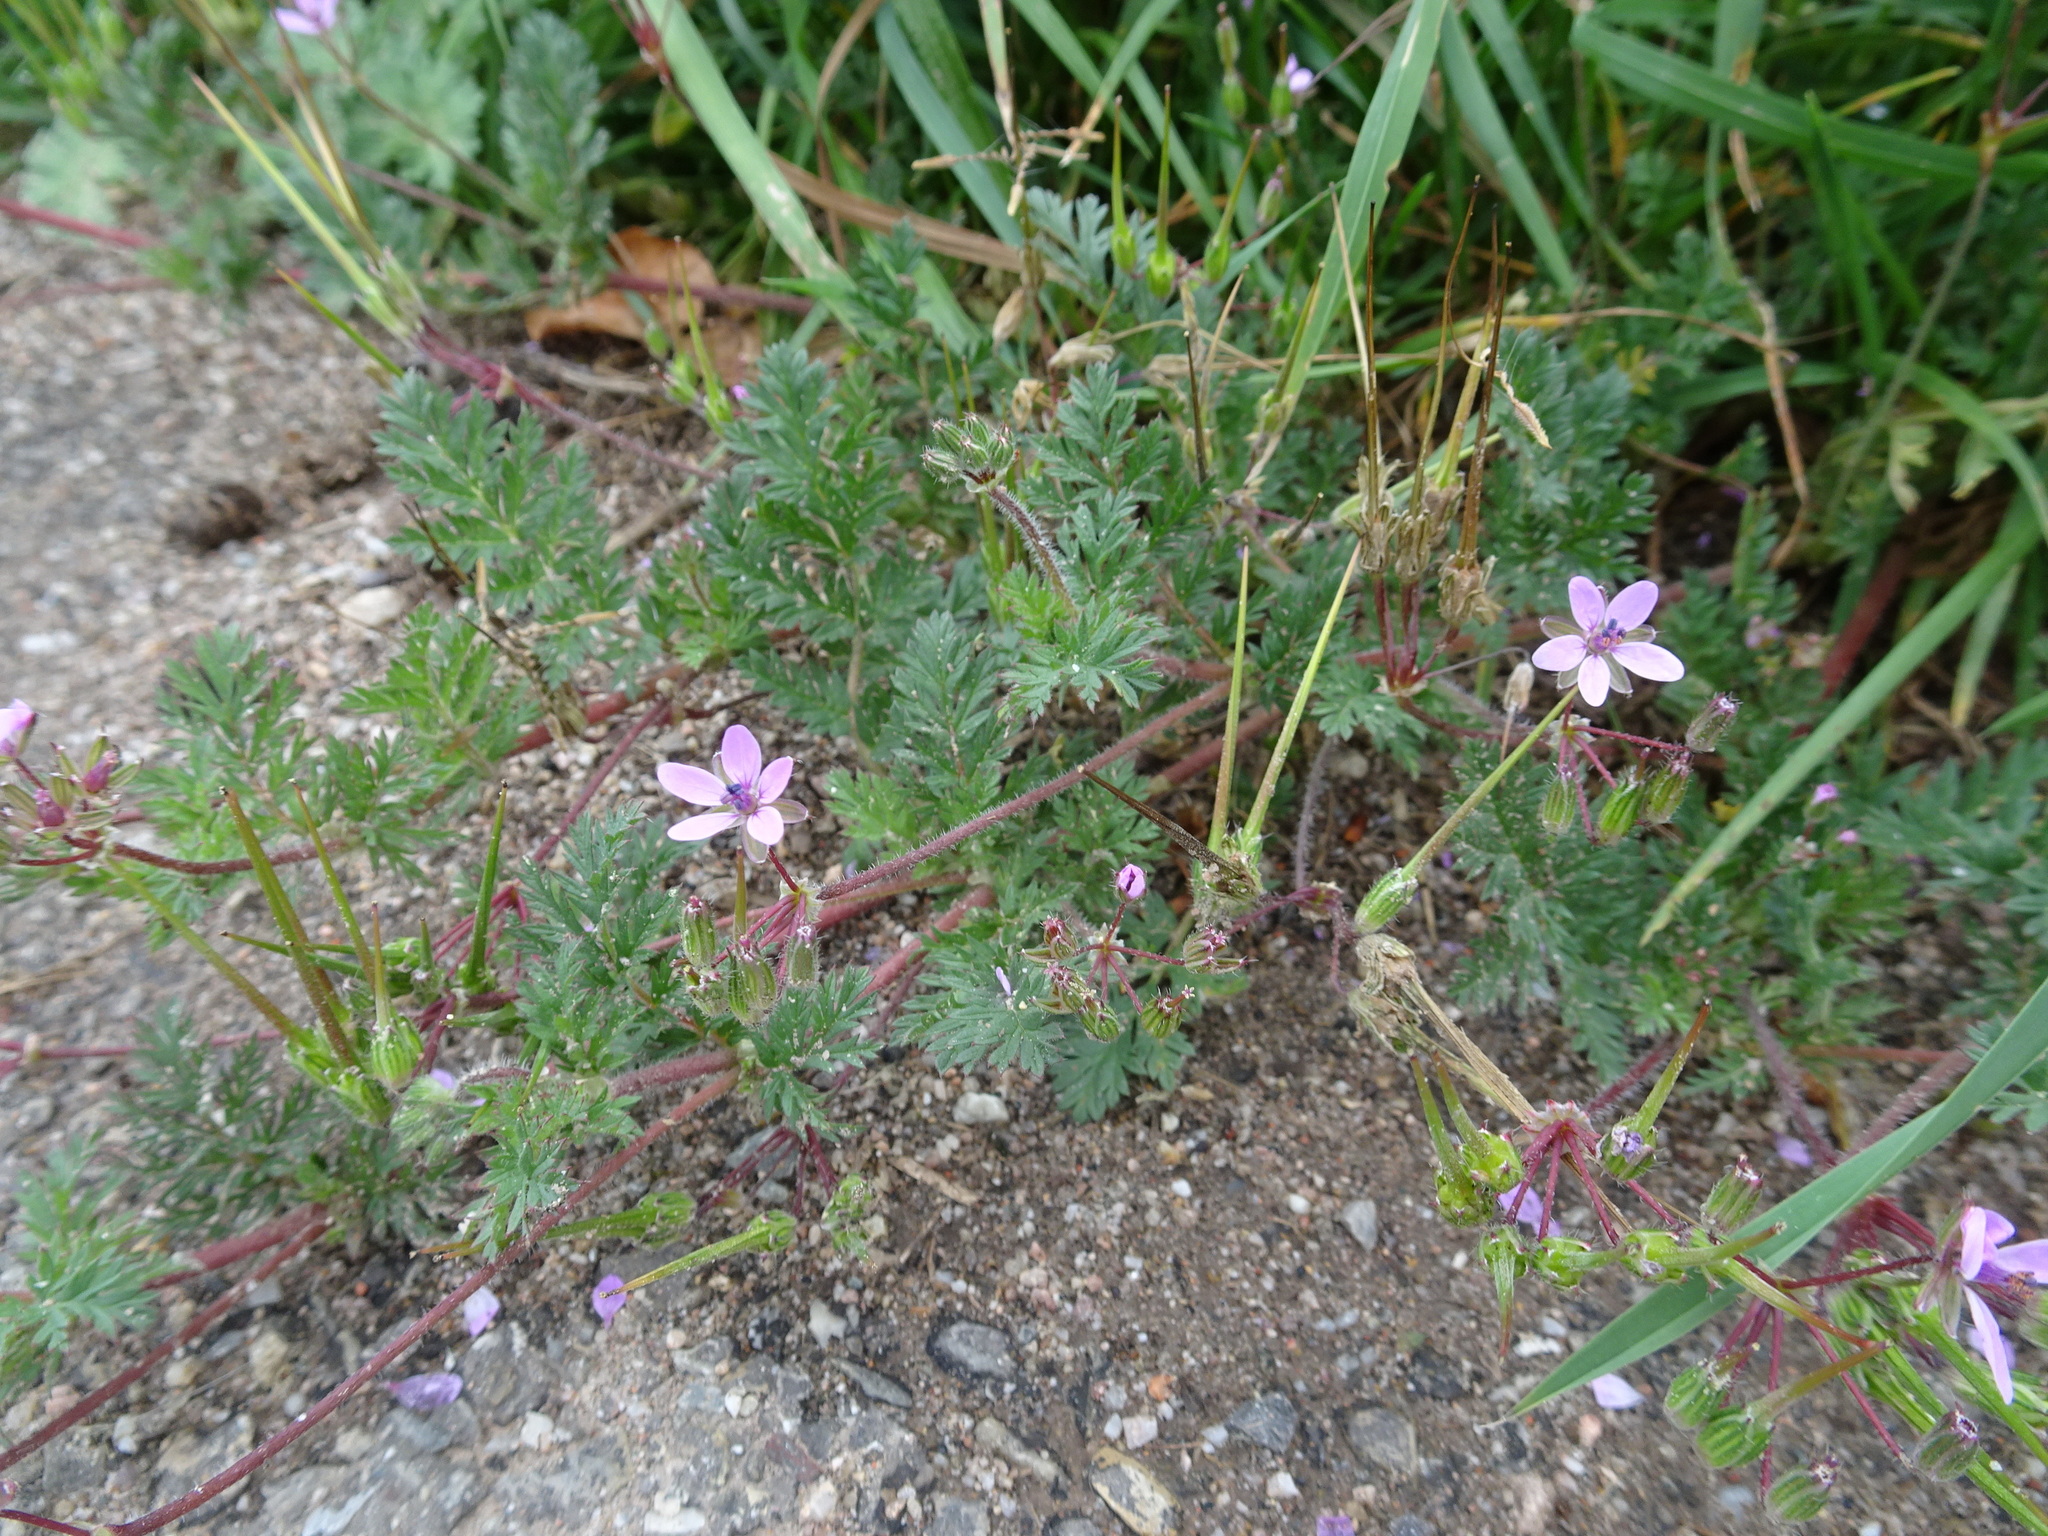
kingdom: Plantae
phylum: Tracheophyta
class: Magnoliopsida
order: Geraniales
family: Geraniaceae
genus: Erodium
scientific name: Erodium cicutarium
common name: Common stork's-bill
